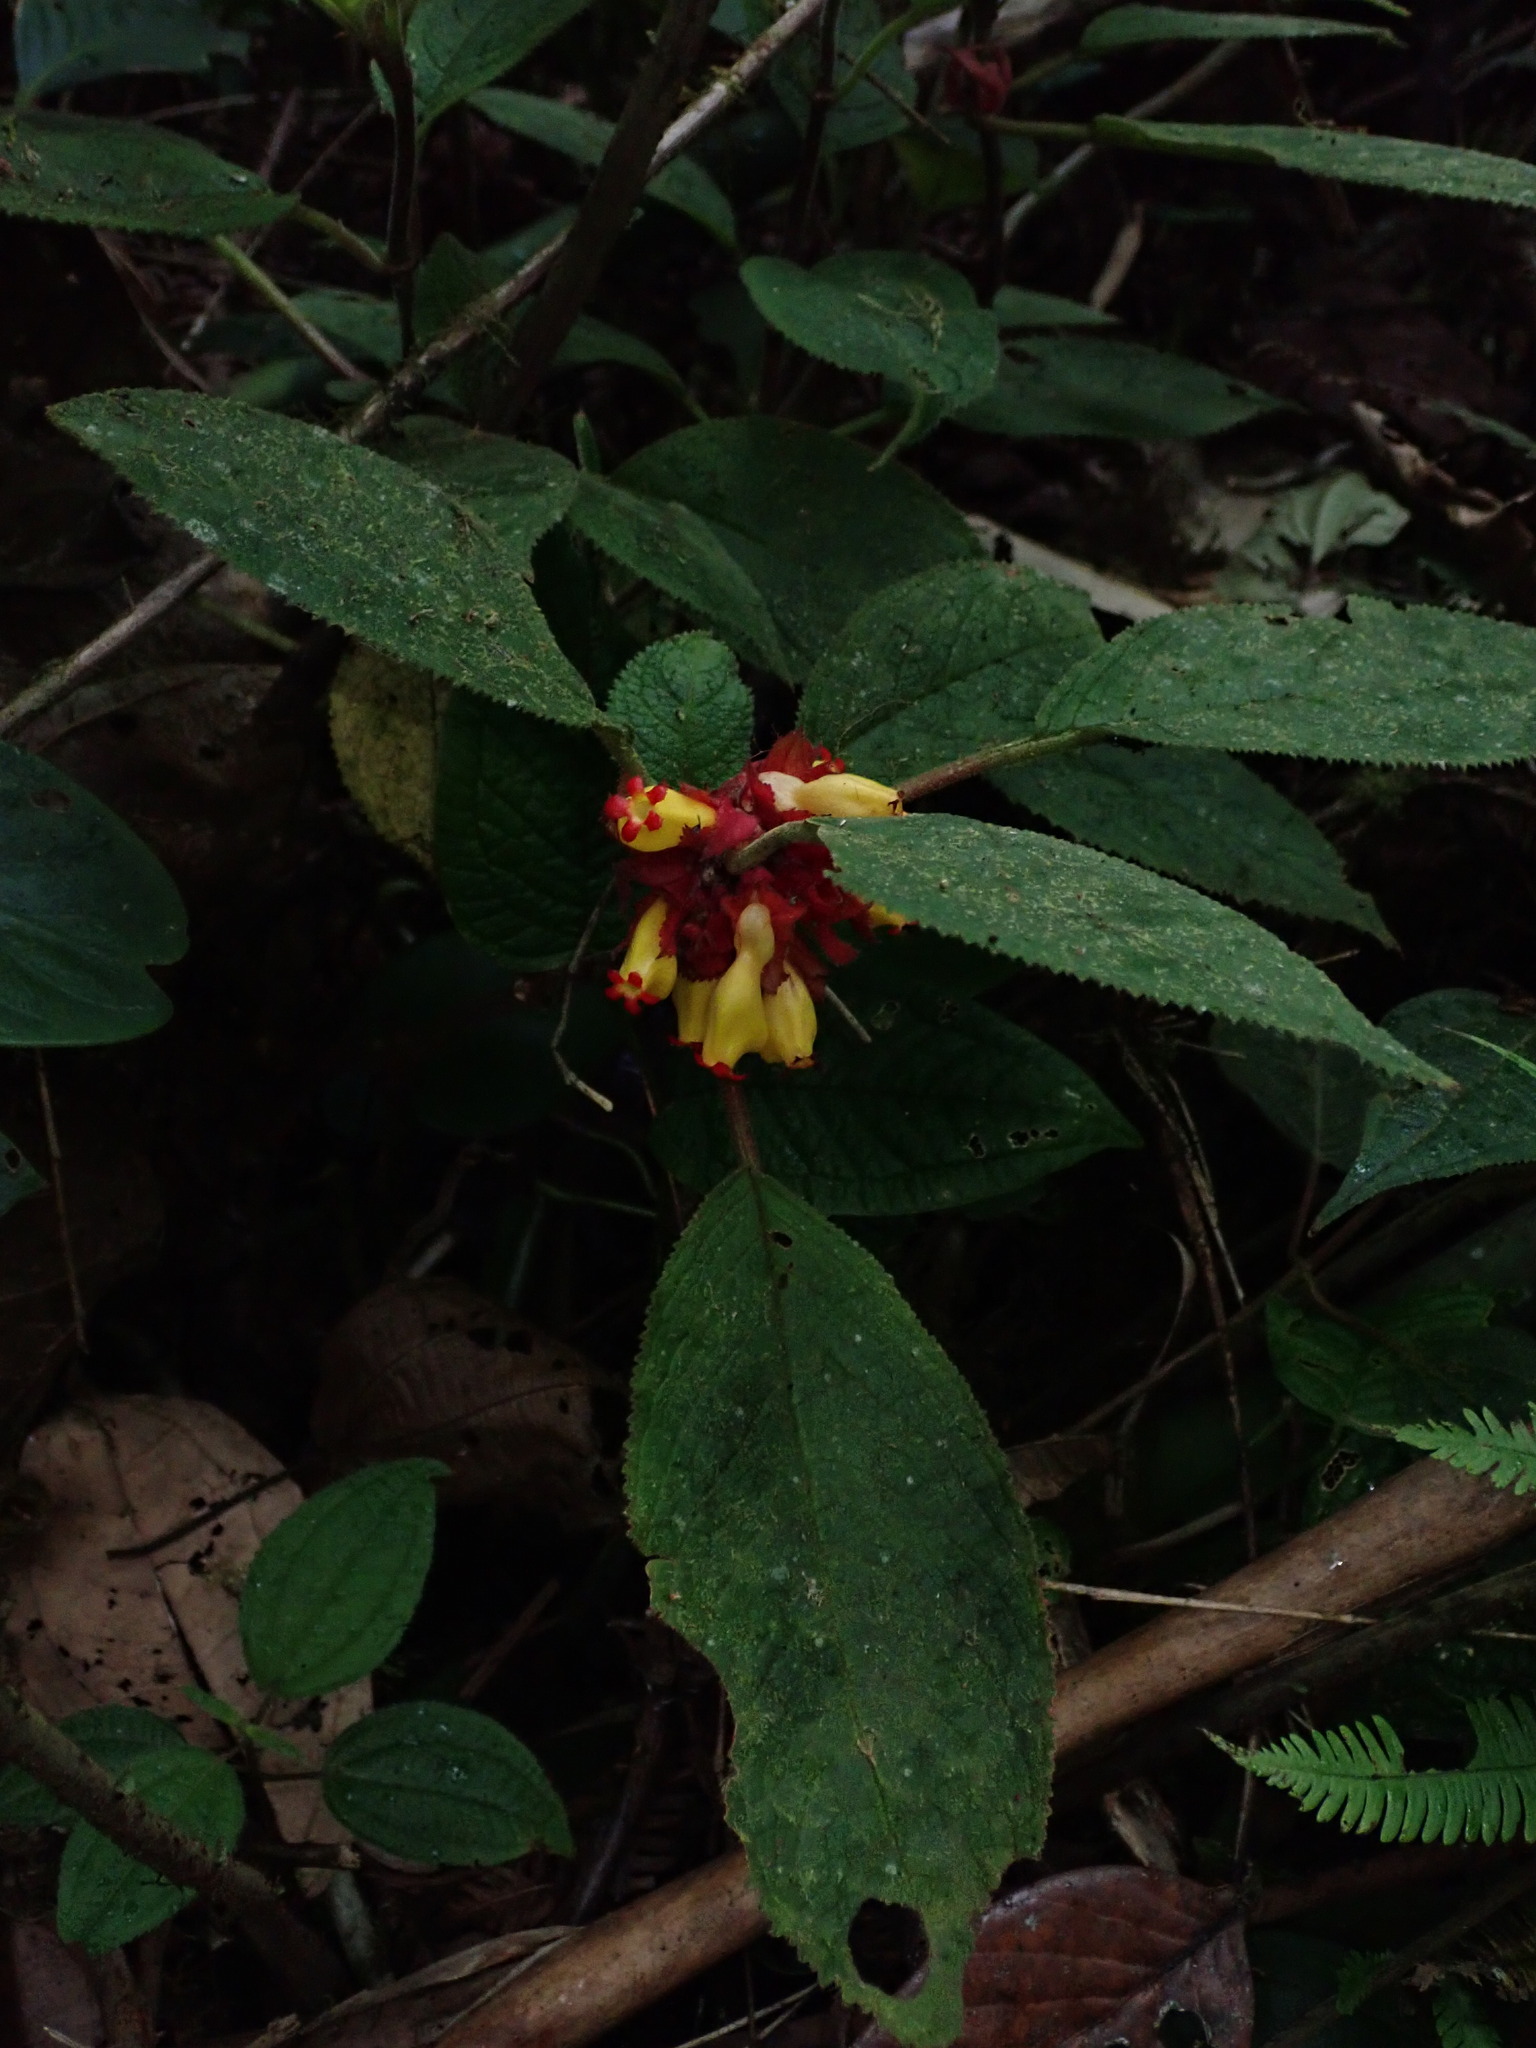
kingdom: Plantae
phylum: Tracheophyta
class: Magnoliopsida
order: Lamiales
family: Gesneriaceae
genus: Drymonia
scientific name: Drymonia teuscheri
